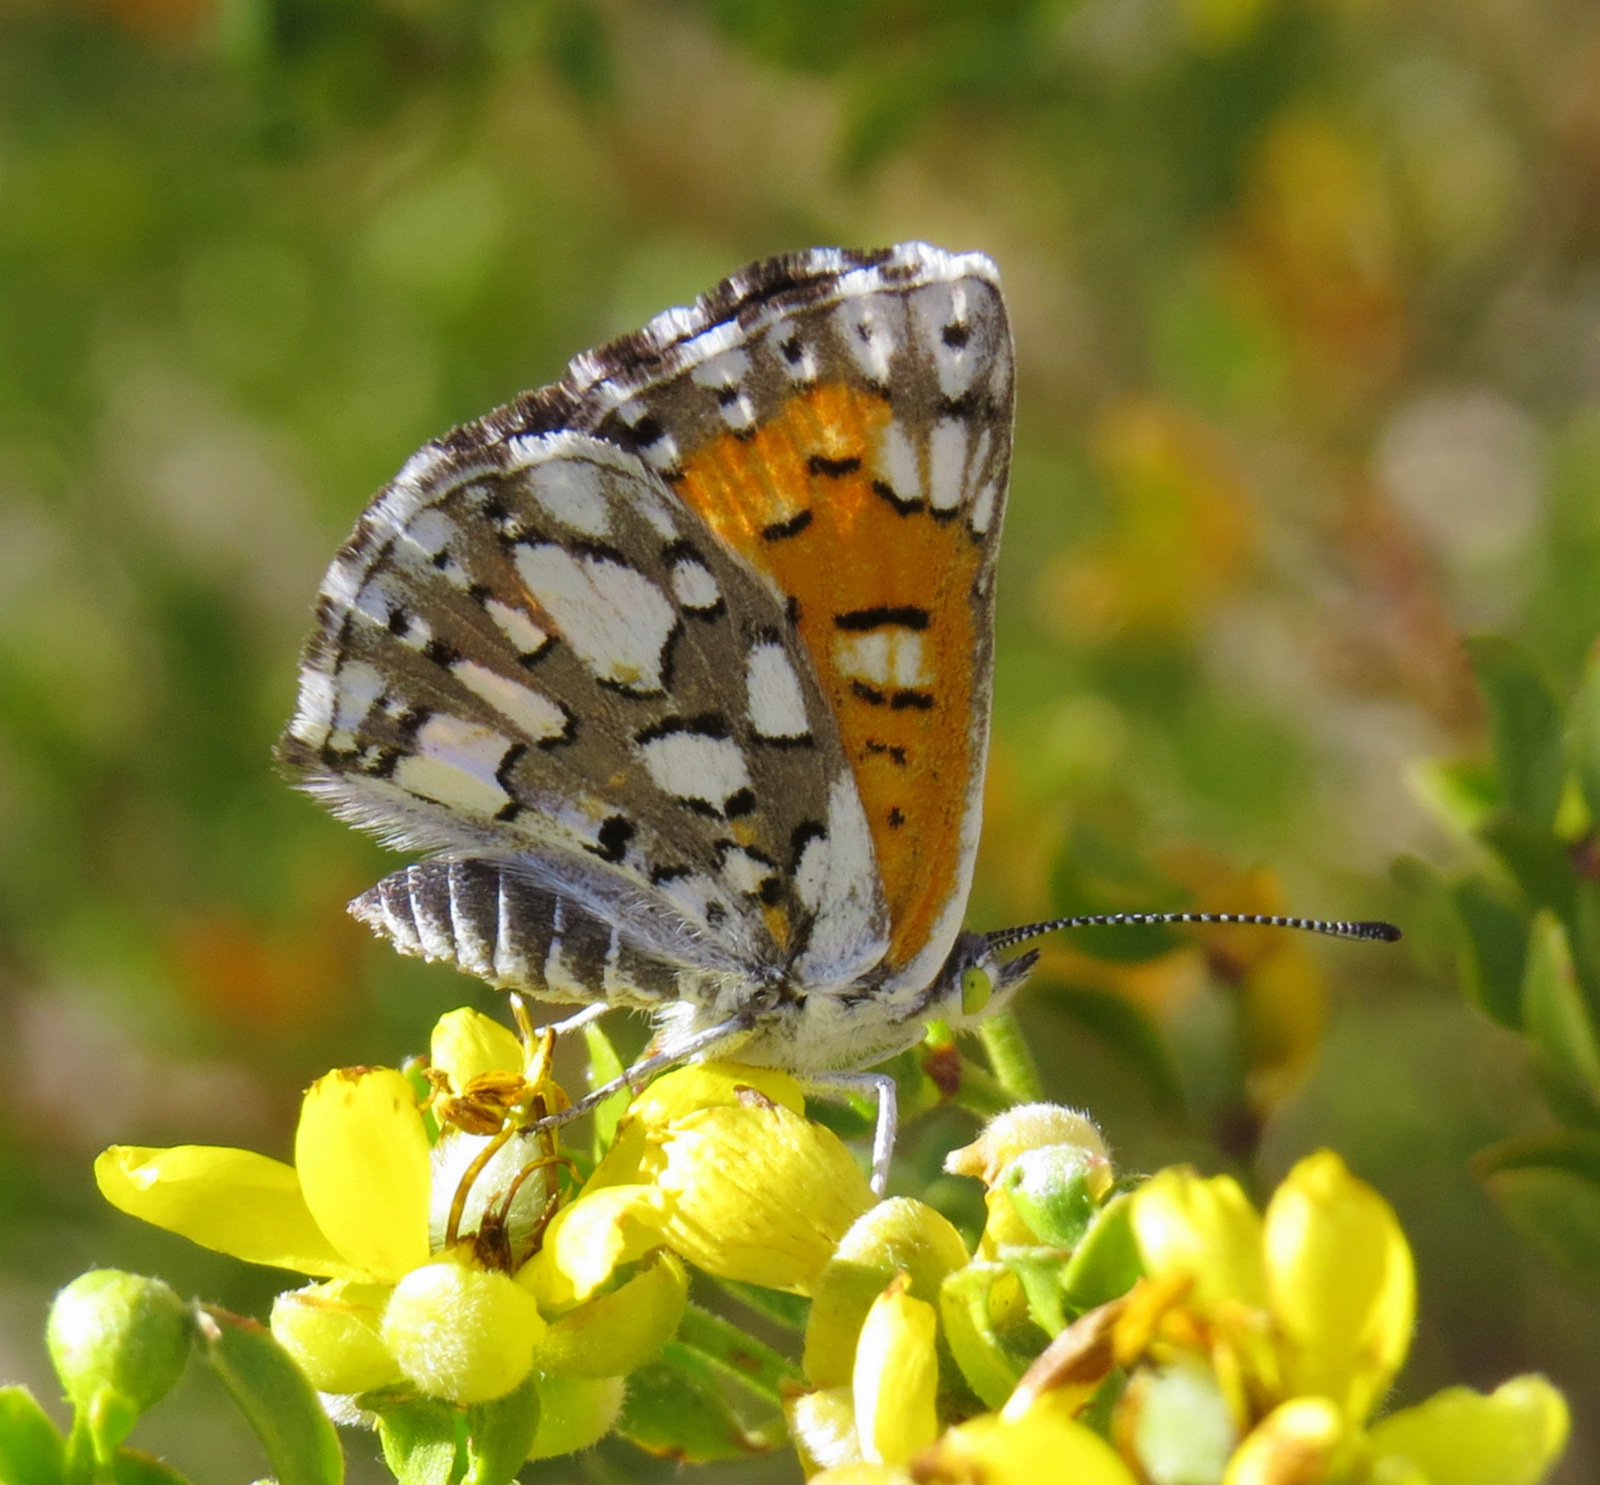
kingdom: Animalia
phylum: Arthropoda
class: Insecta
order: Lepidoptera
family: Riodinidae
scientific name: Riodinidae
